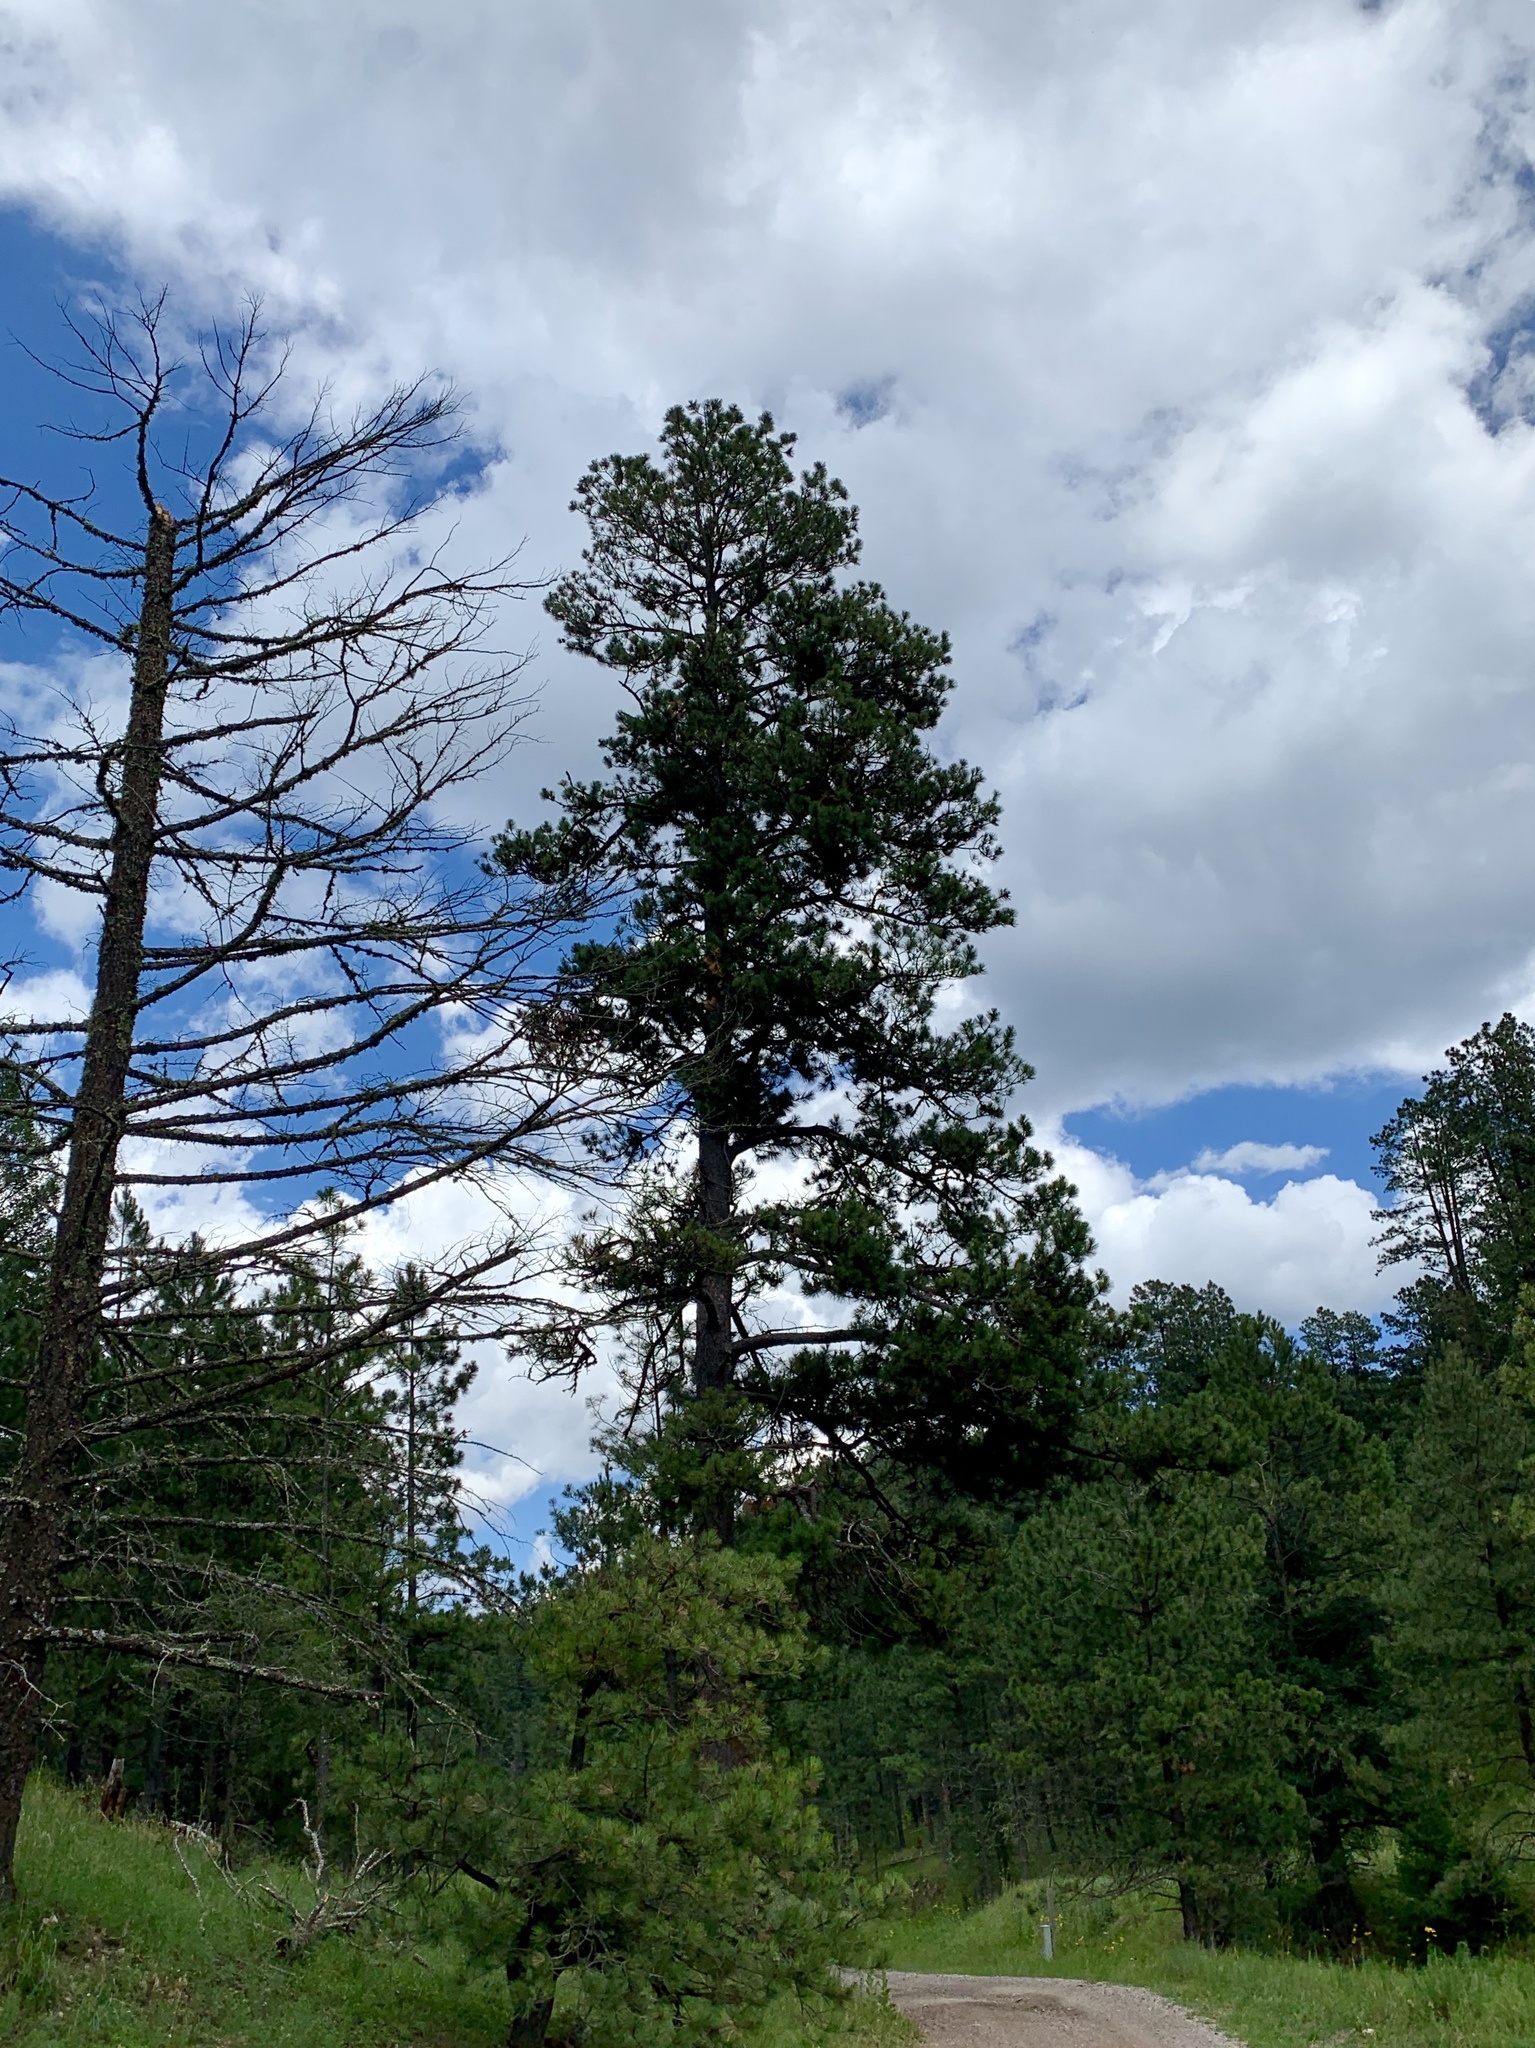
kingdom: Plantae
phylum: Tracheophyta
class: Pinopsida
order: Pinales
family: Pinaceae
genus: Pinus
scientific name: Pinus ponderosa
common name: Western yellow-pine
